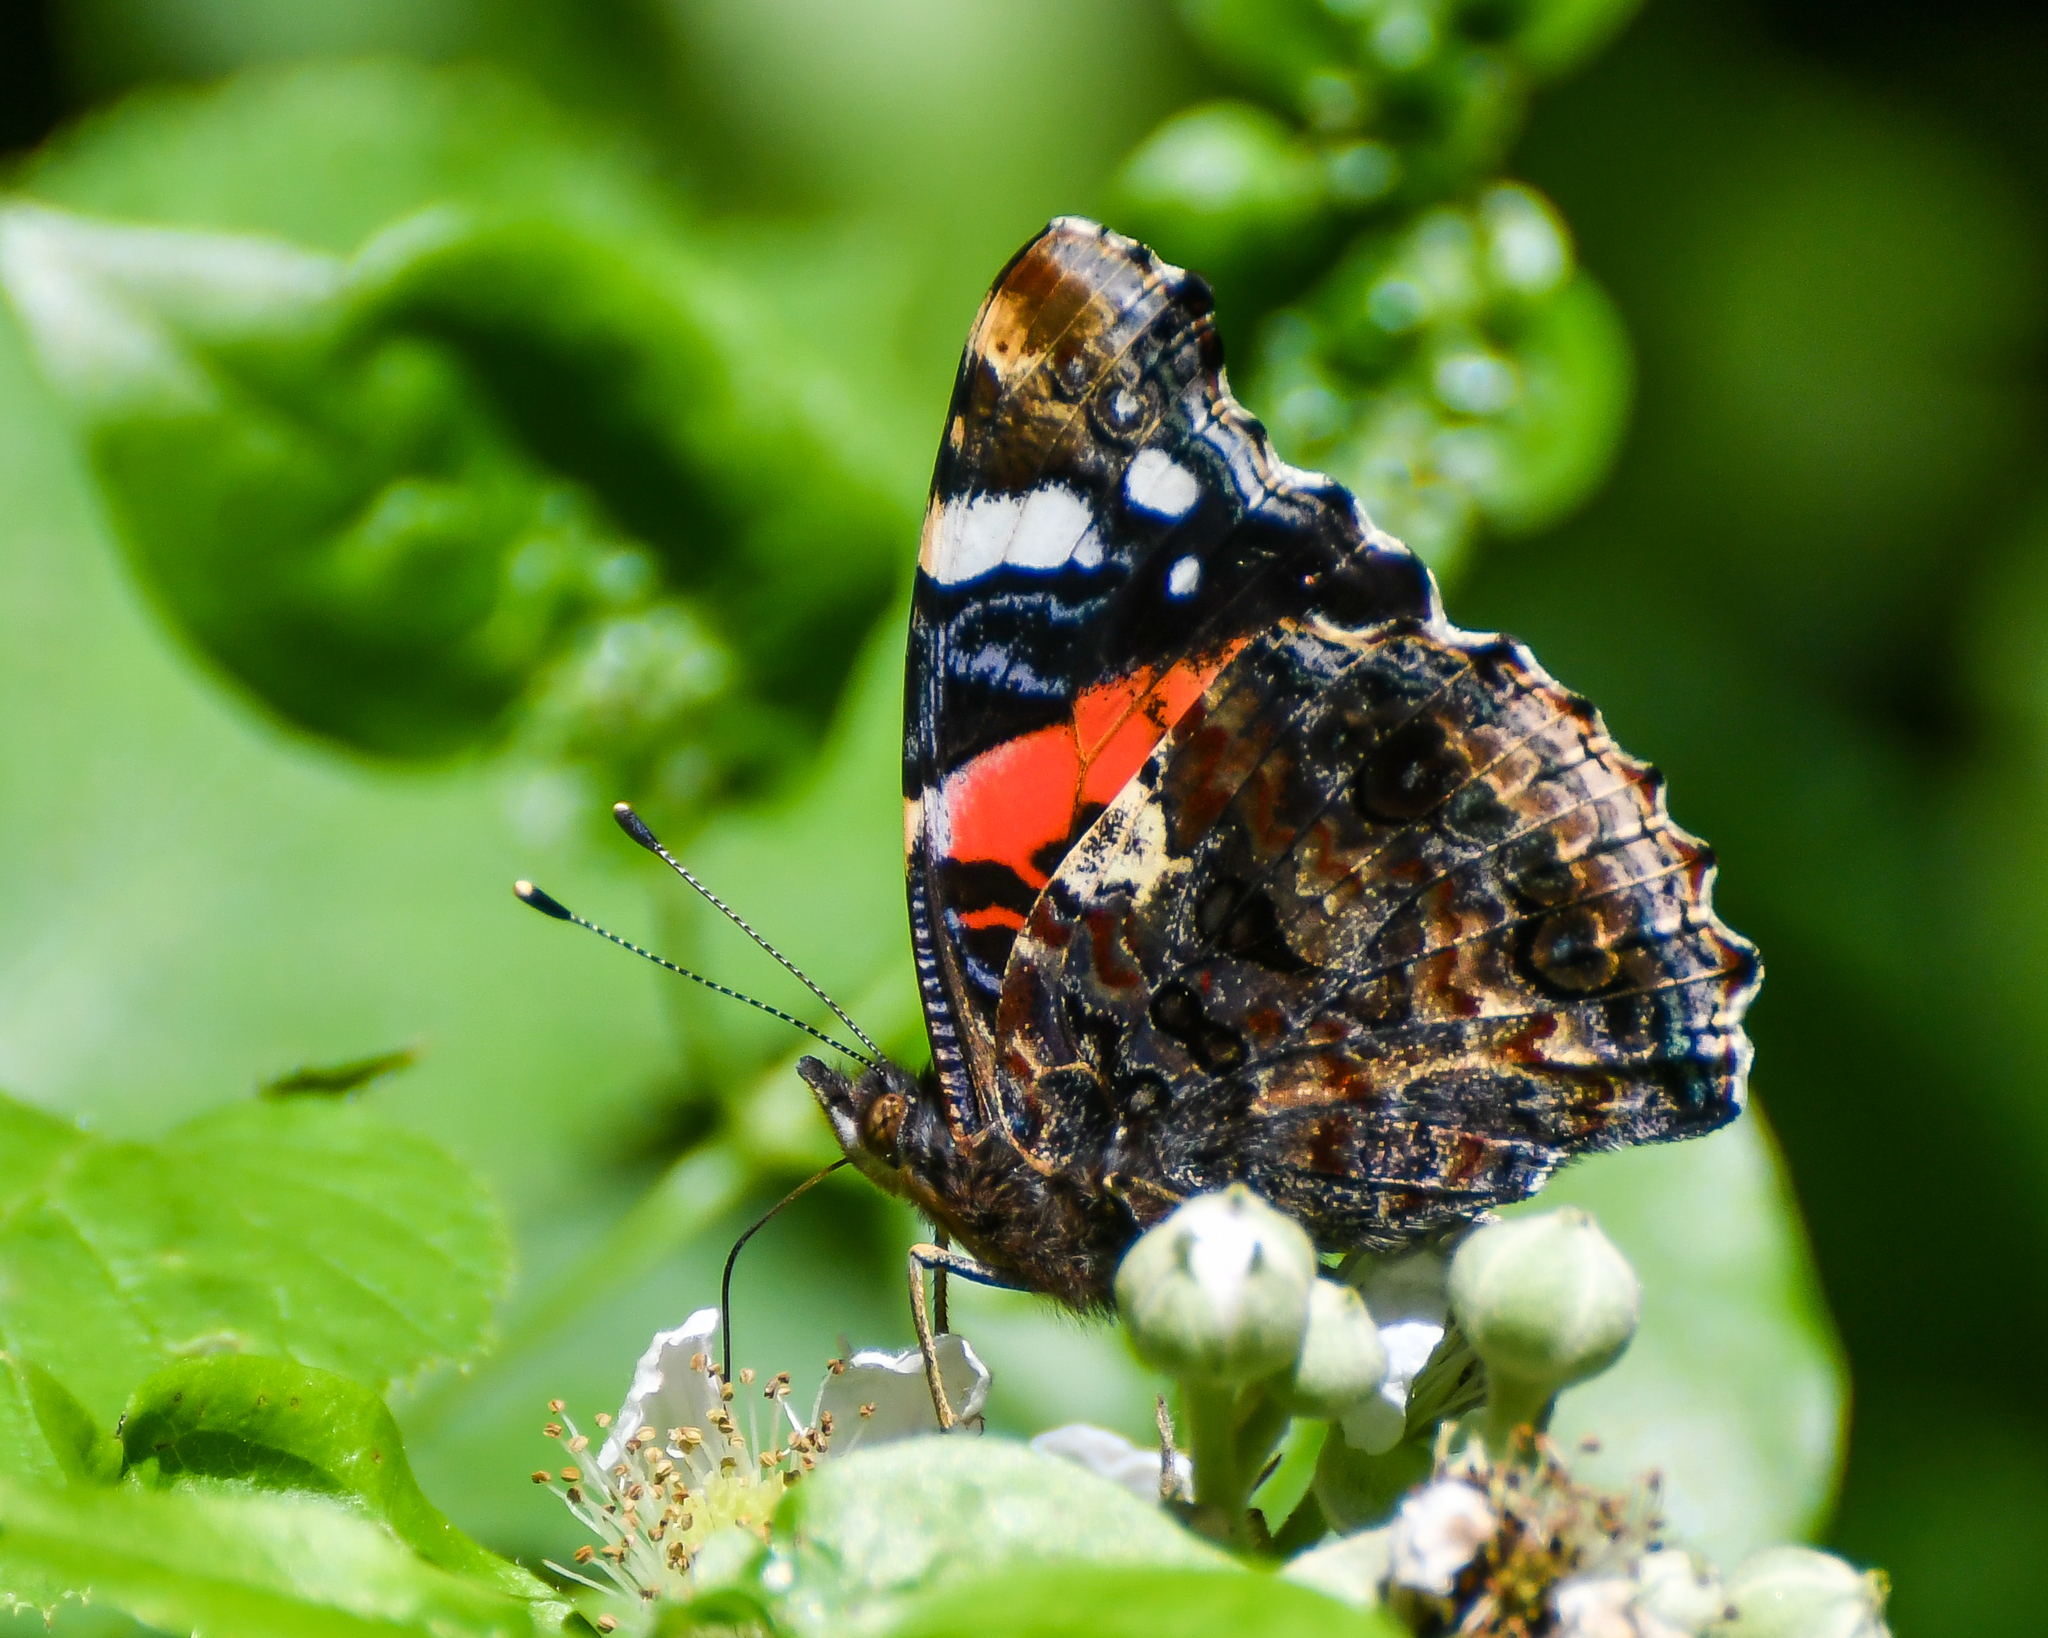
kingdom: Animalia
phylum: Arthropoda
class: Insecta
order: Lepidoptera
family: Nymphalidae
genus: Vanessa
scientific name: Vanessa atalanta
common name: Red admiral
